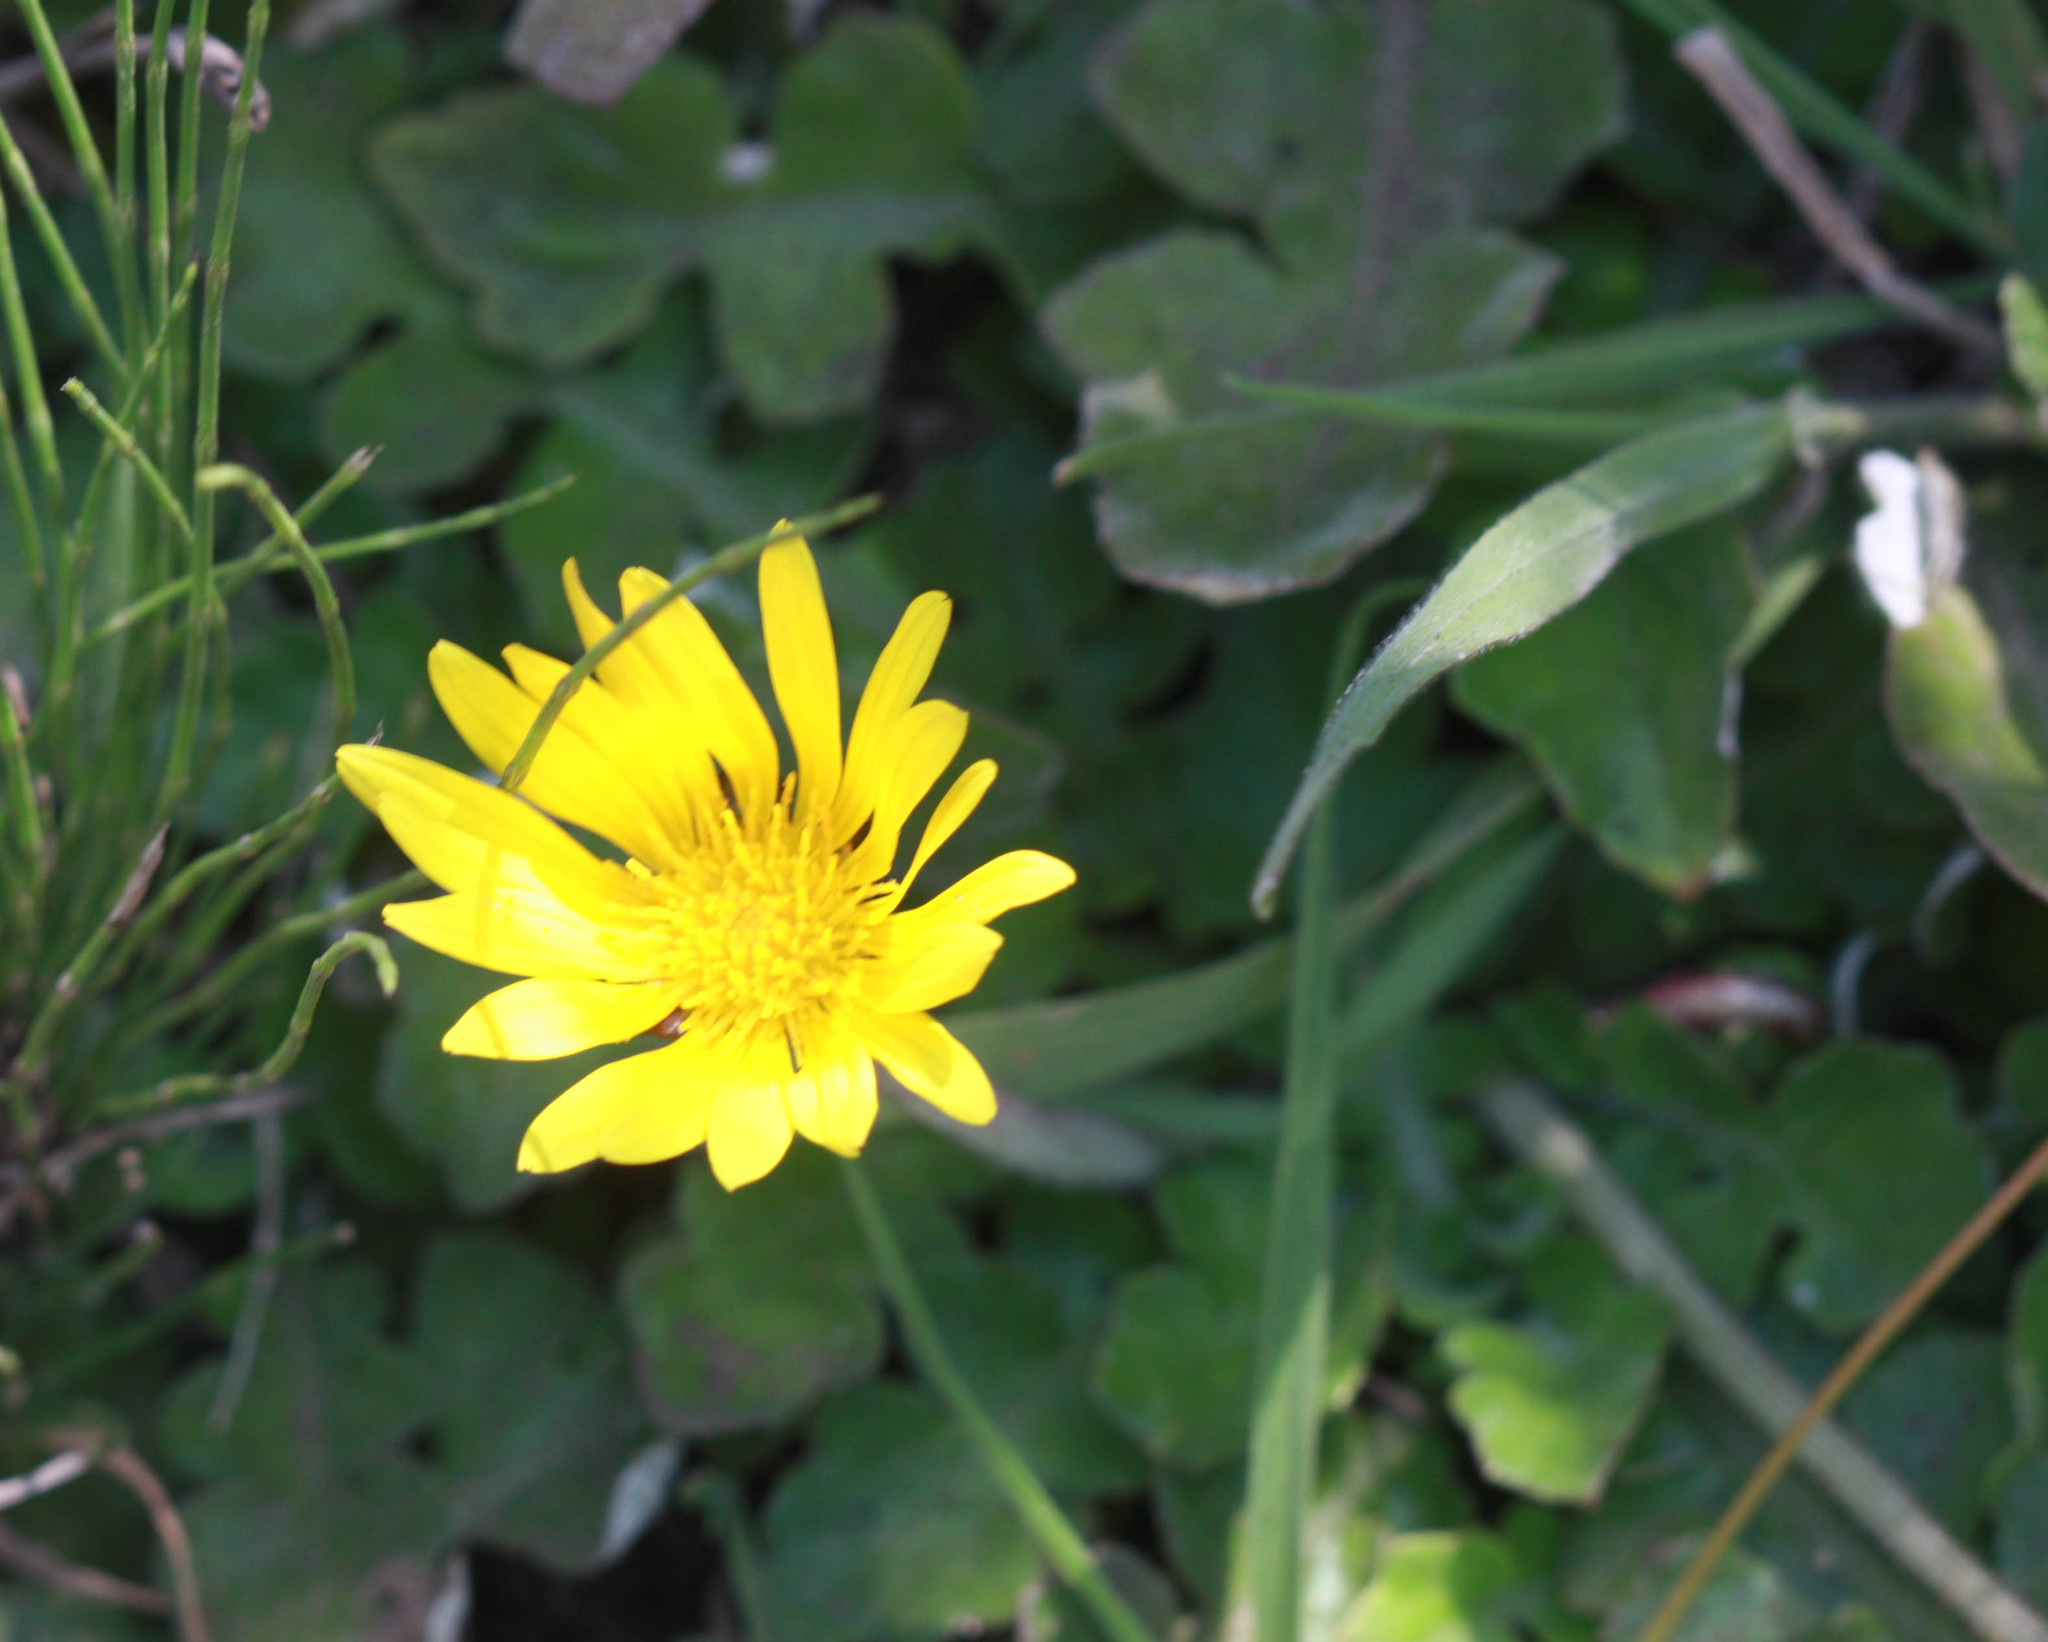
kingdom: Plantae
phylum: Tracheophyta
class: Magnoliopsida
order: Asterales
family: Asteraceae
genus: Arctotheca
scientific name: Arctotheca prostrata
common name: Capeweed
